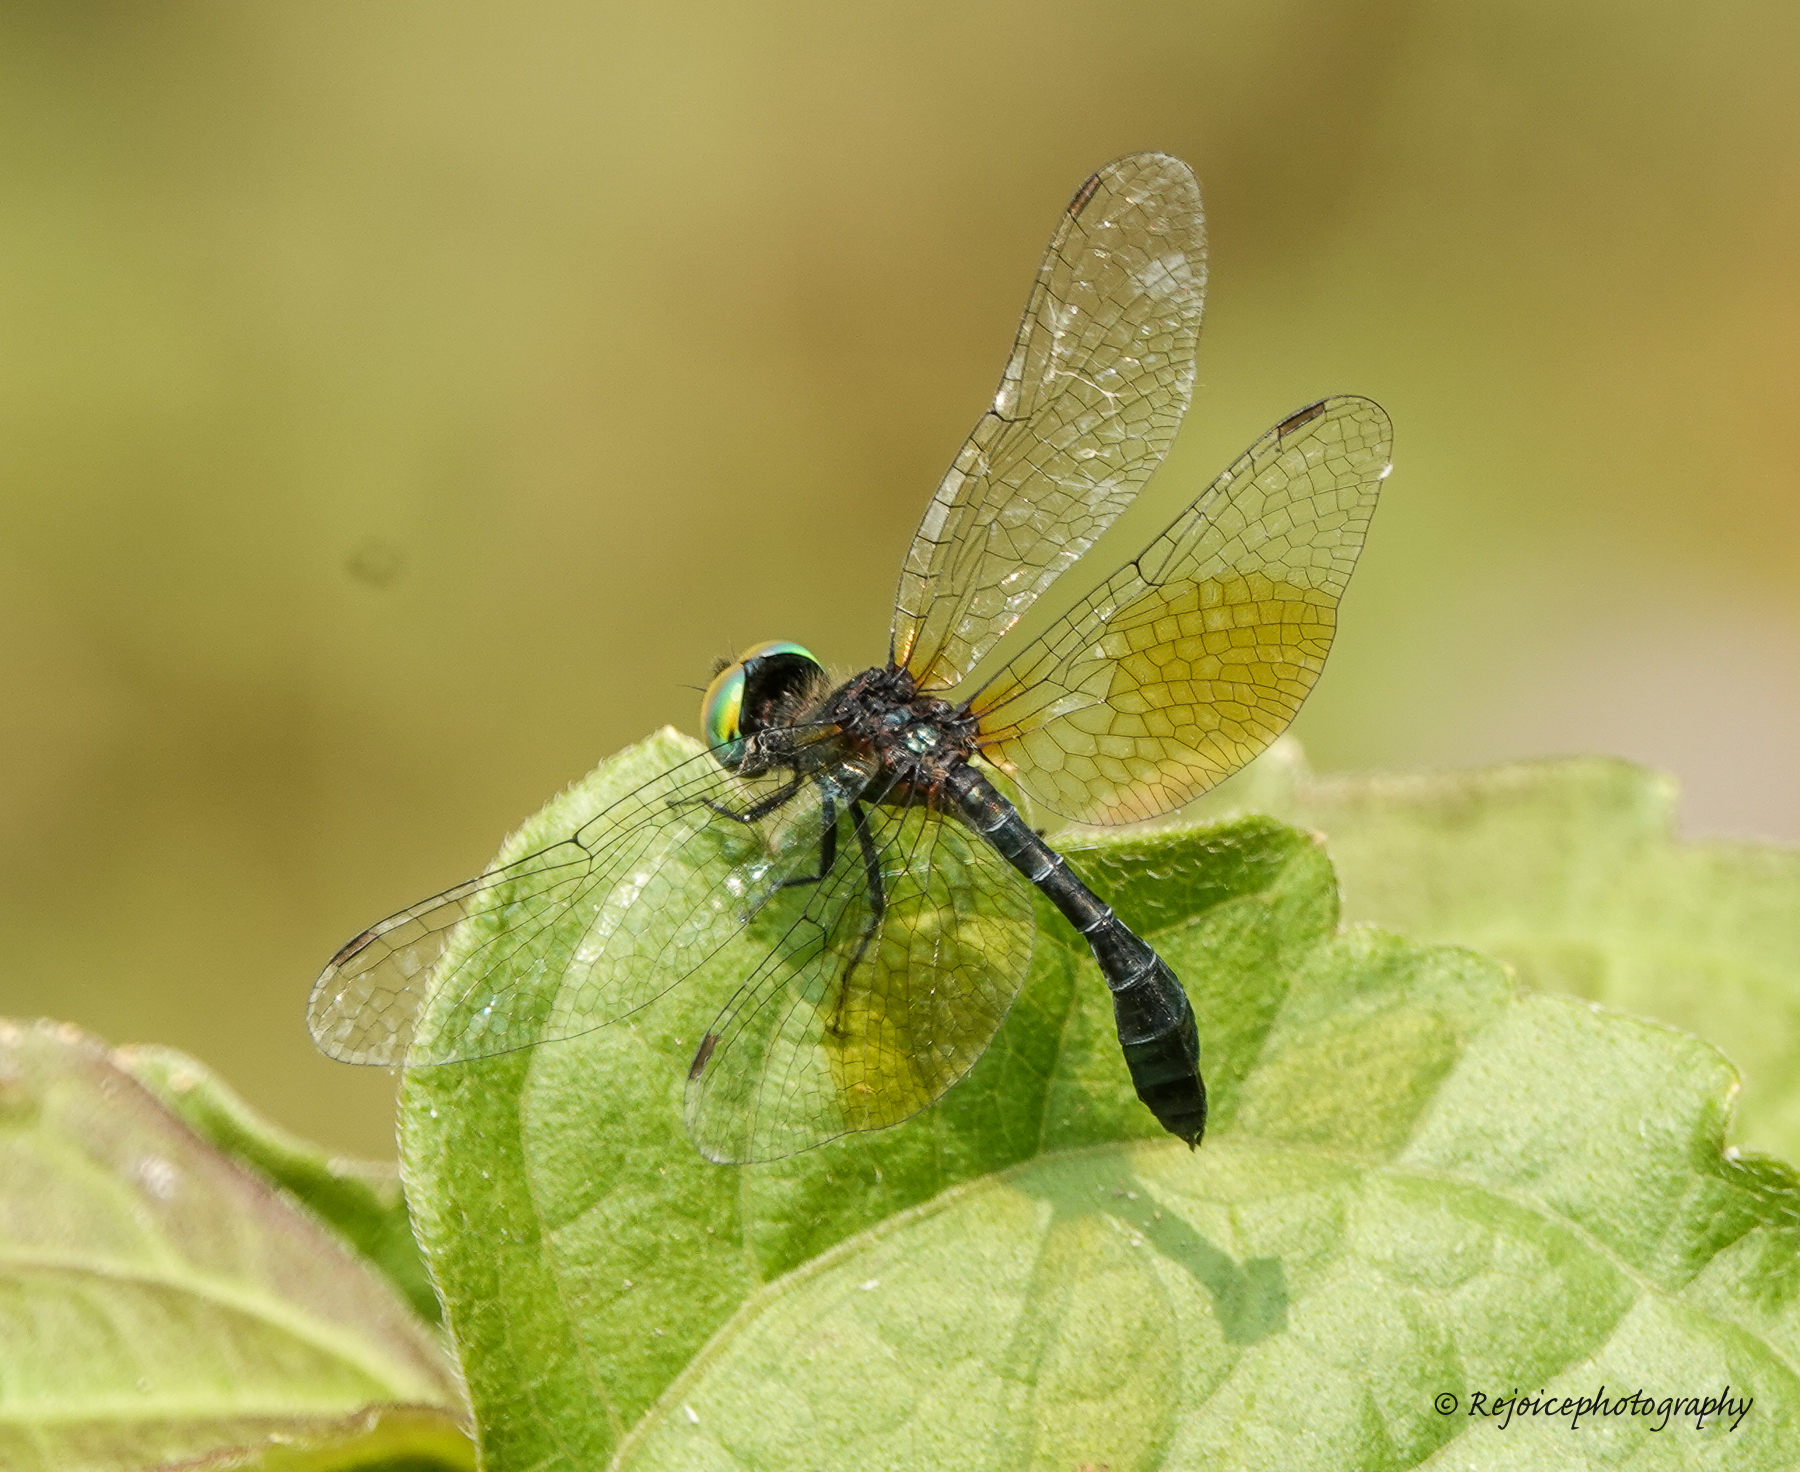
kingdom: Animalia
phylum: Arthropoda
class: Insecta
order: Odonata
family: Libellulidae
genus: Nannophyopsis
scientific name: Nannophyopsis clara
